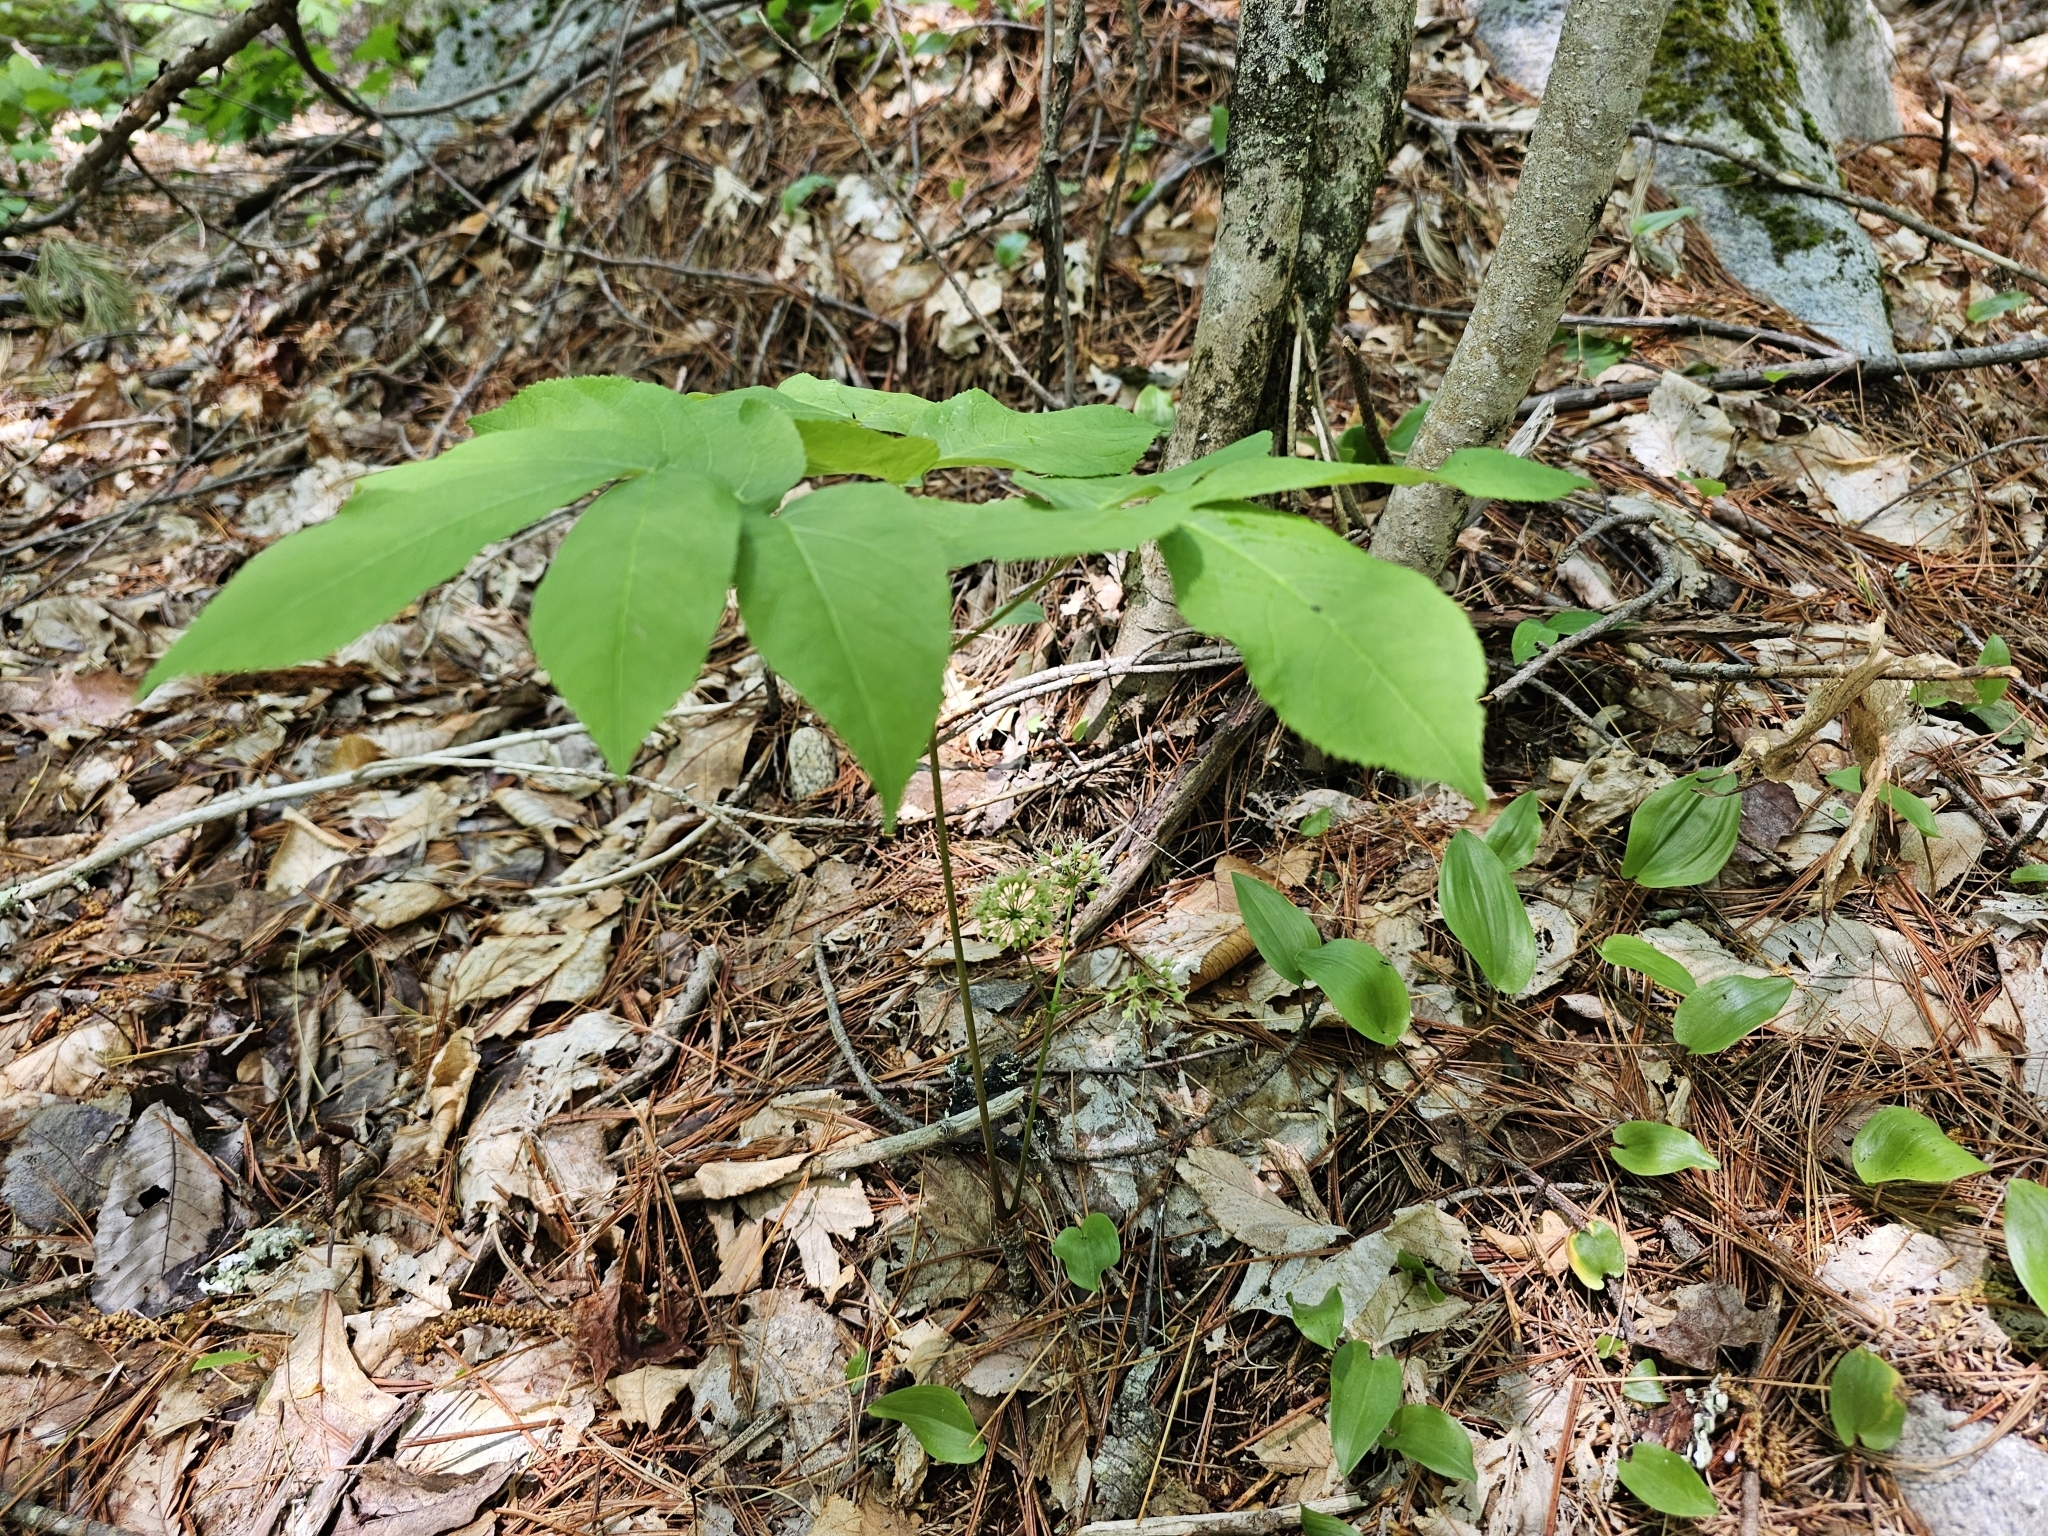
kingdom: Plantae
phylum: Tracheophyta
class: Magnoliopsida
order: Apiales
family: Araliaceae
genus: Aralia
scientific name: Aralia nudicaulis
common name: Wild sarsaparilla
